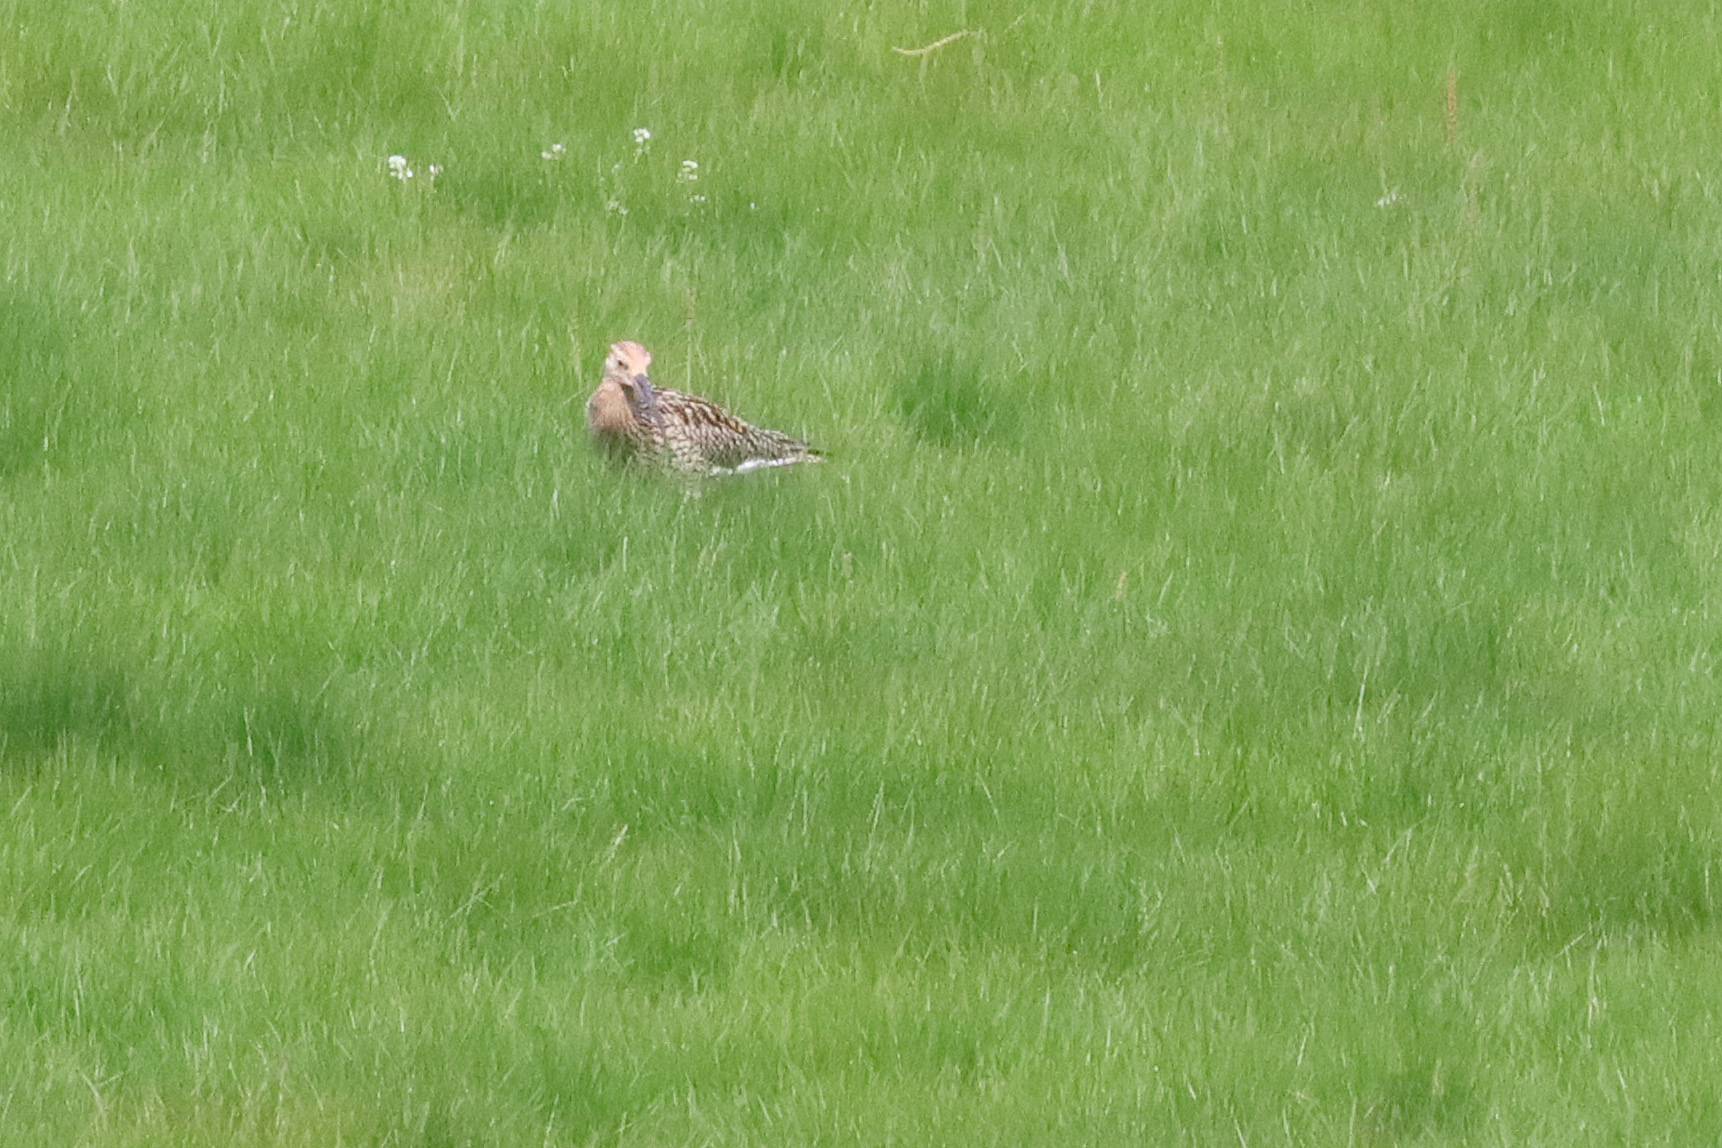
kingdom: Animalia
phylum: Chordata
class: Aves
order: Charadriiformes
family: Scolopacidae
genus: Numenius
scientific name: Numenius phaeopus
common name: Whimbrel
